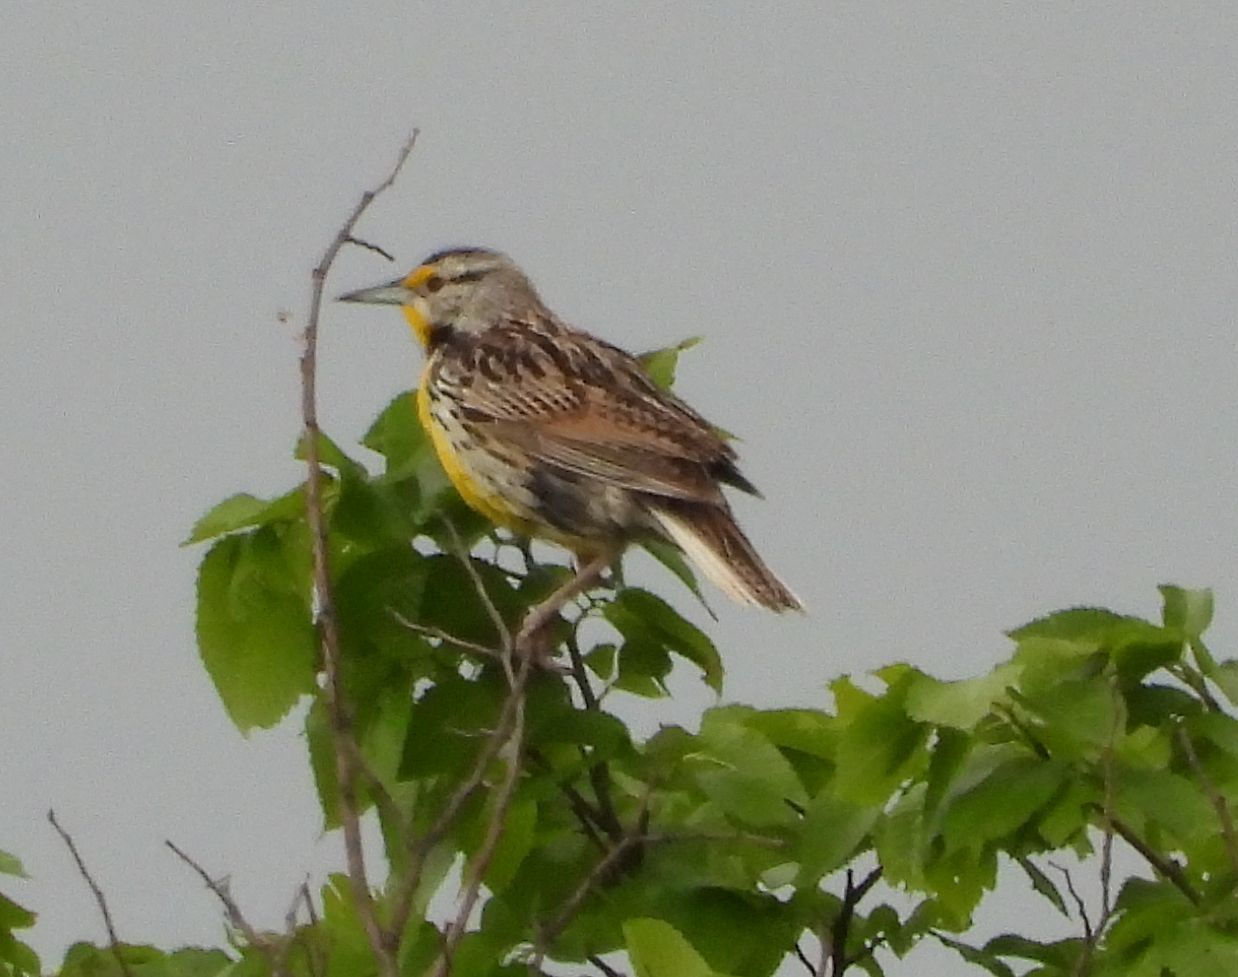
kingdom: Animalia
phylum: Chordata
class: Aves
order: Passeriformes
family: Icteridae
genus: Sturnella
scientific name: Sturnella magna
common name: Eastern meadowlark
